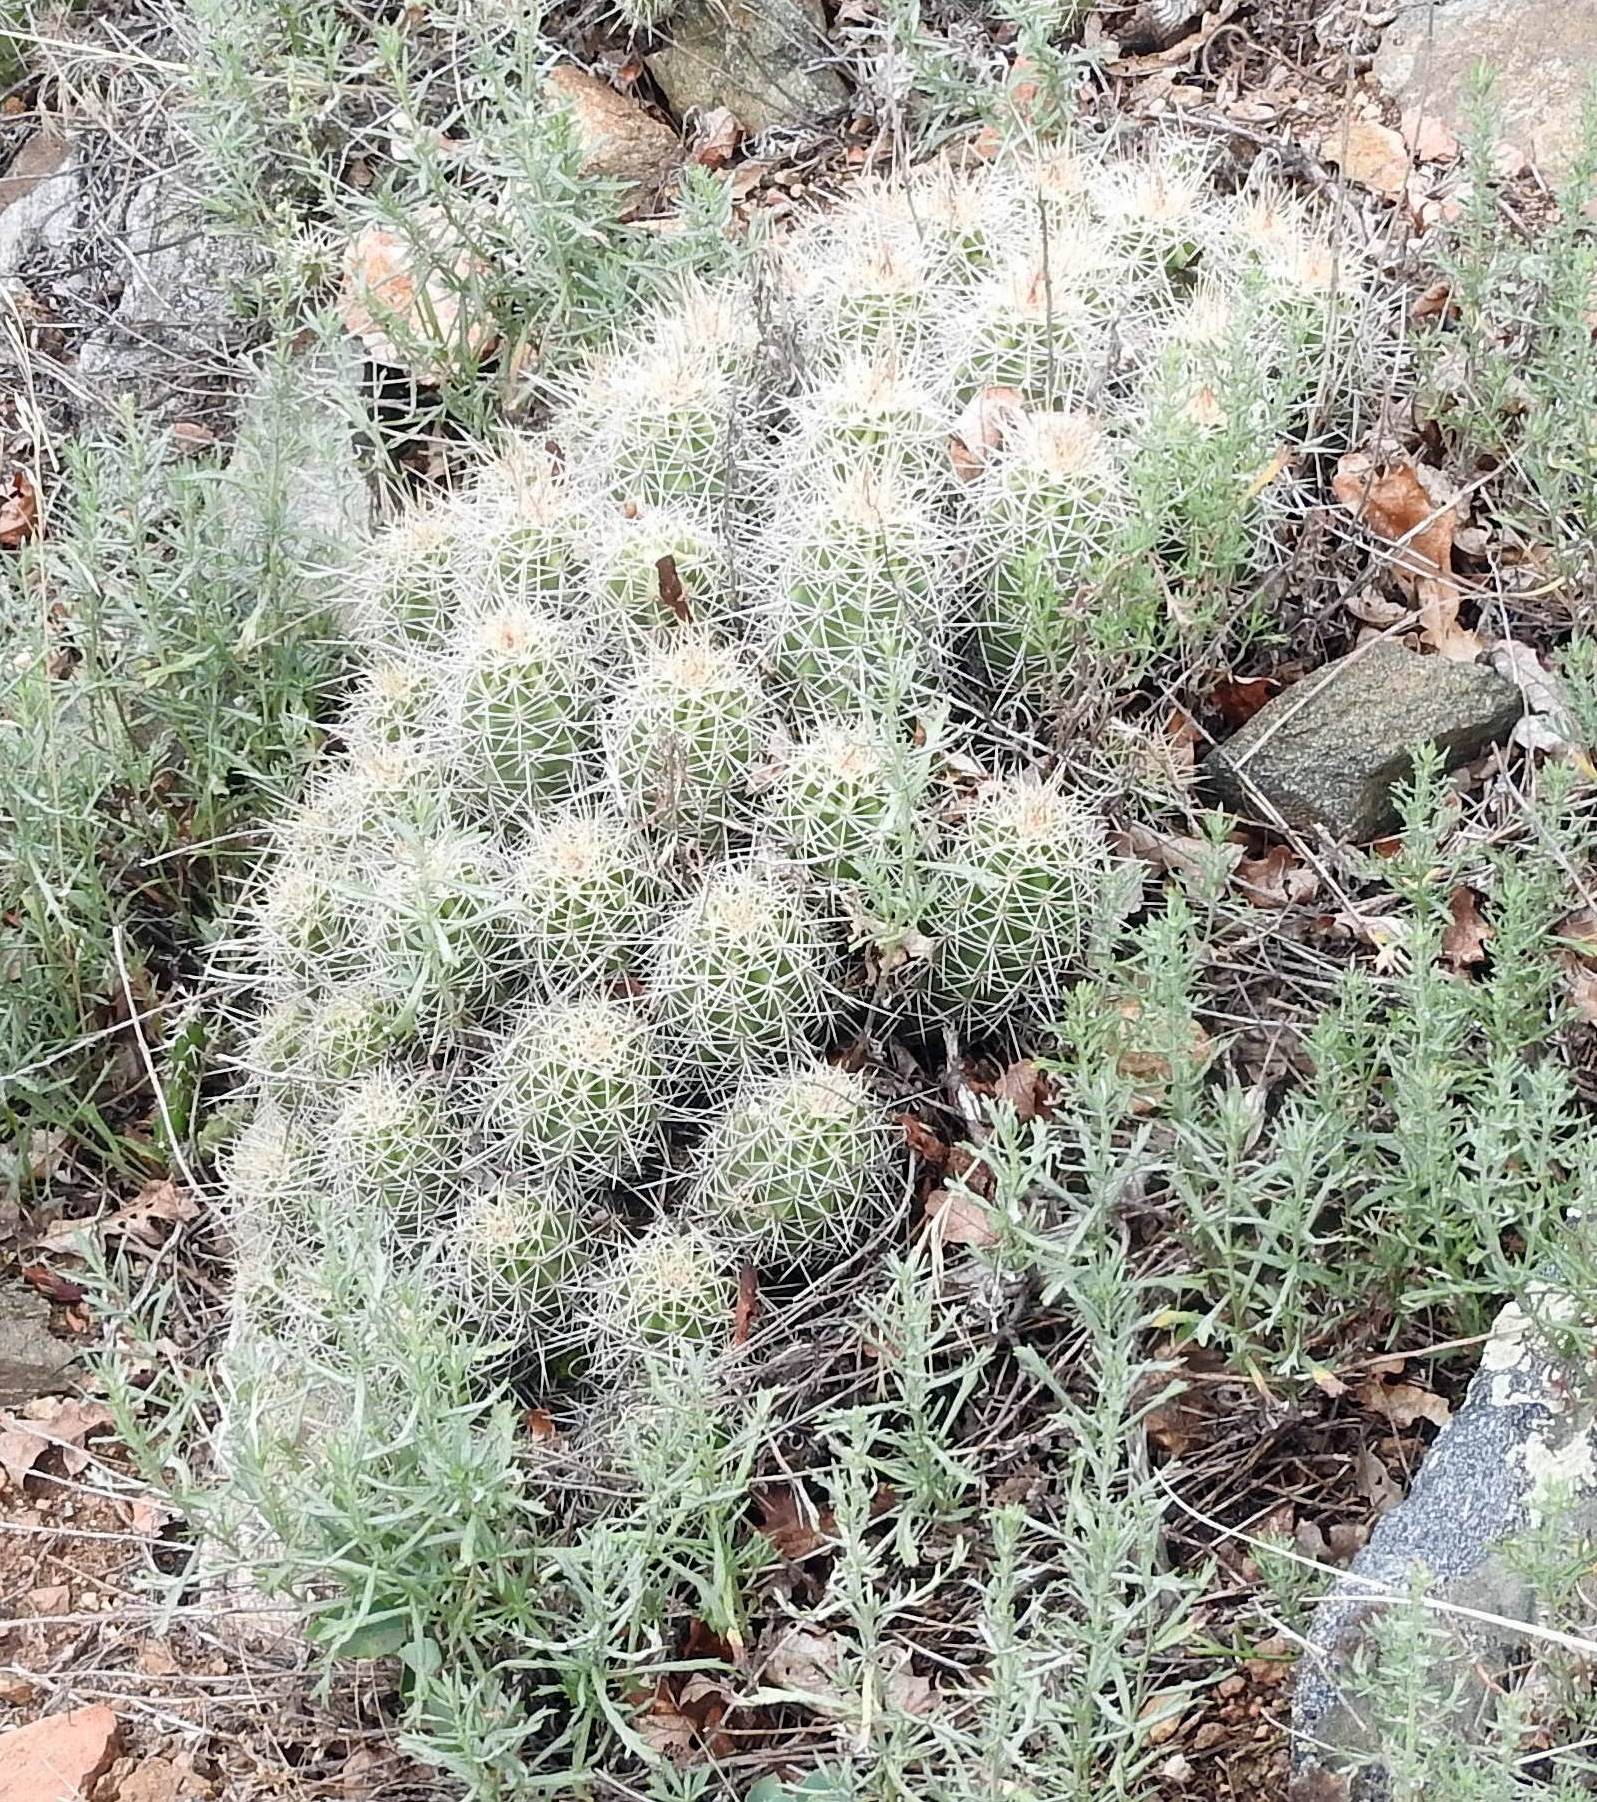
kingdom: Plantae
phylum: Tracheophyta
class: Magnoliopsida
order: Caryophyllales
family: Cactaceae
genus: Echinocereus
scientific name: Echinocereus triglochidiatus
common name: Claretcup hedgehog
